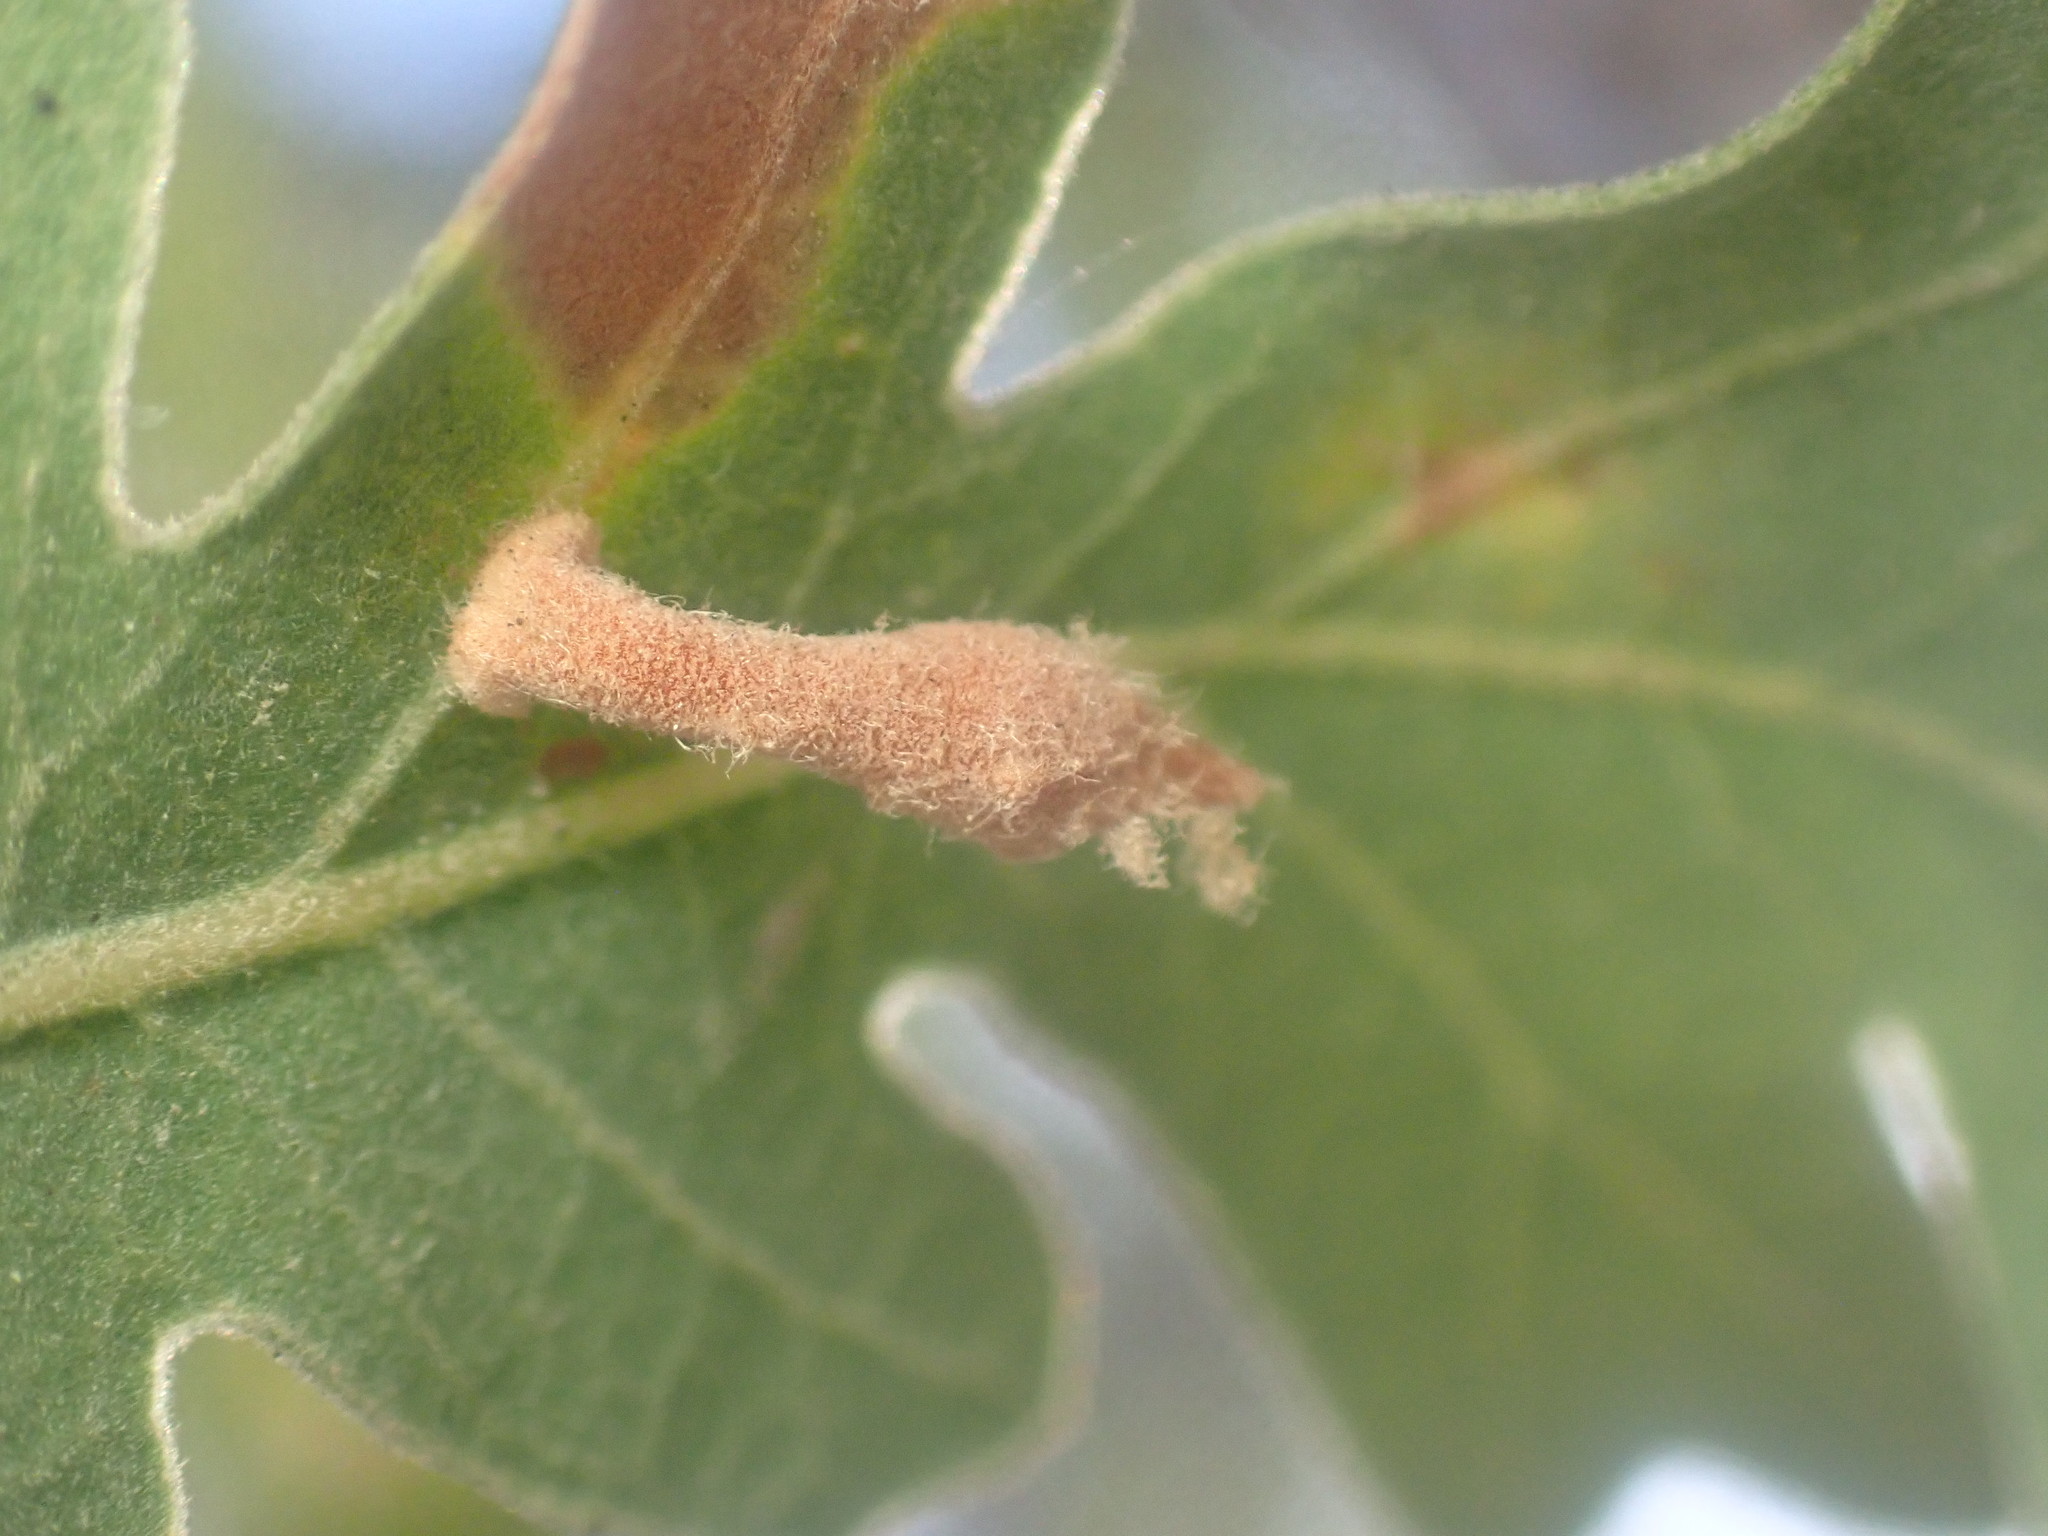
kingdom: Animalia
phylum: Arthropoda
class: Insecta
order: Hymenoptera
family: Cynipidae
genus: Atrusca
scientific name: Atrusca
